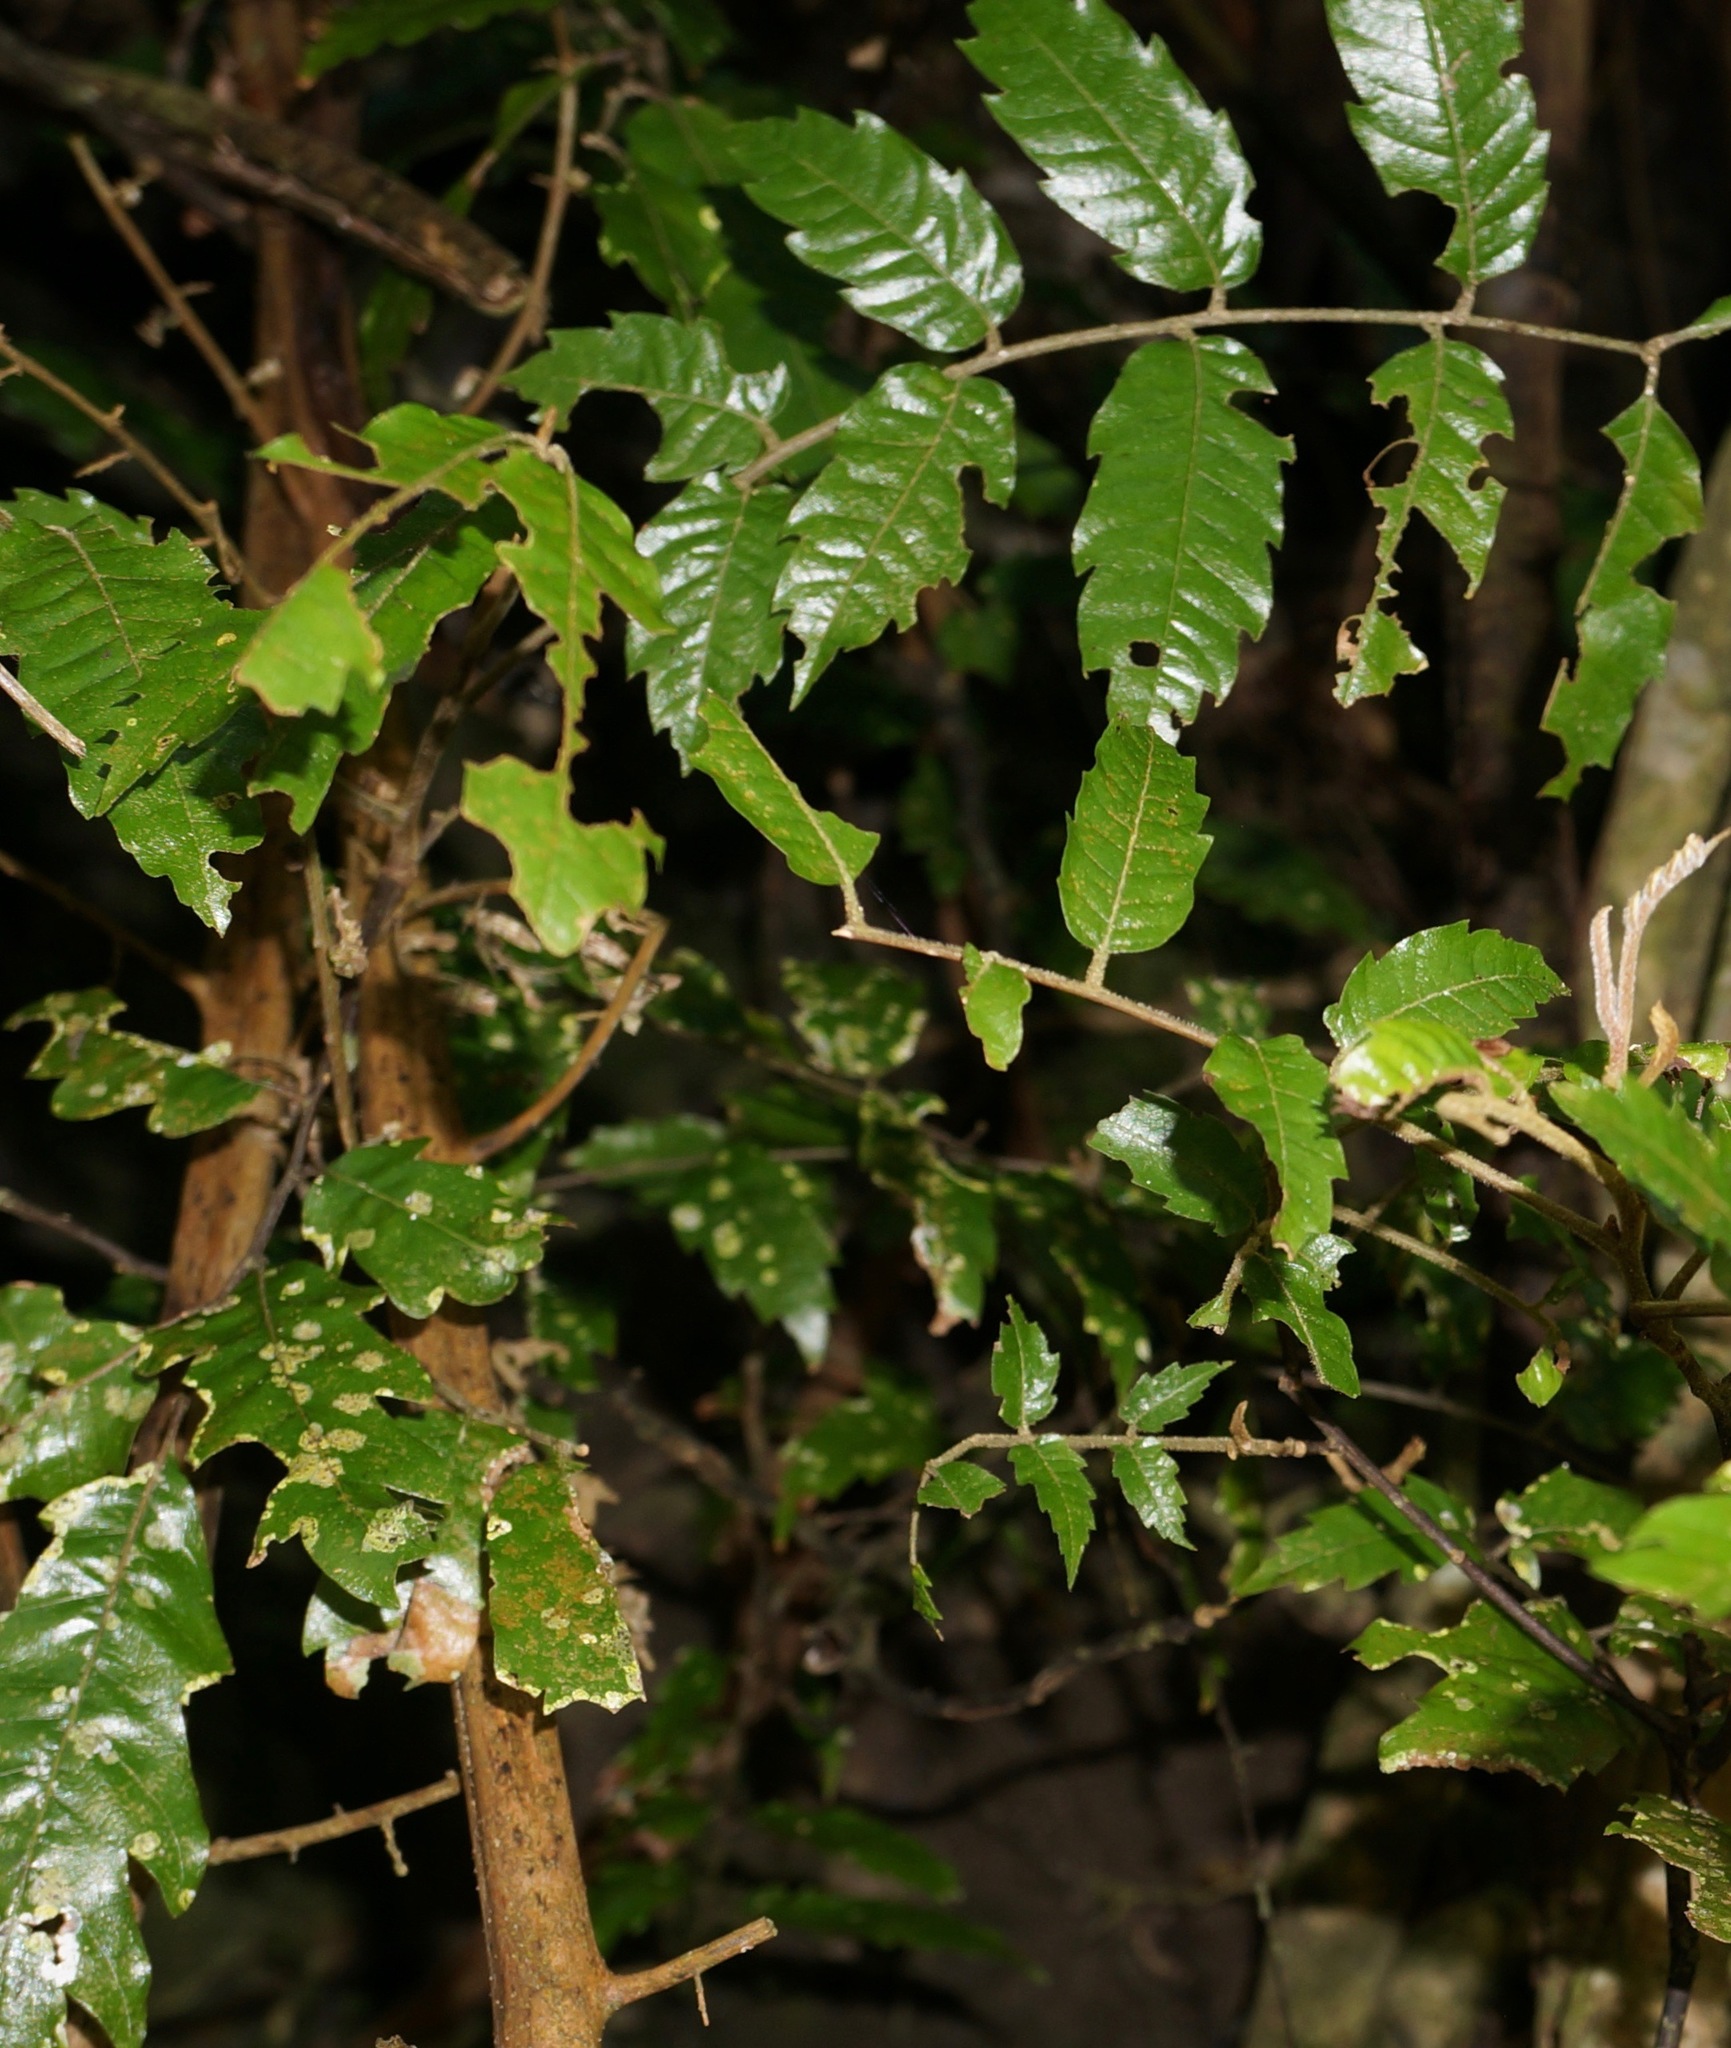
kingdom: Plantae
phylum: Tracheophyta
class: Magnoliopsida
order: Sapindales
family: Sapindaceae
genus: Alectryon
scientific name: Alectryon excelsus
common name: Three kings titoki
